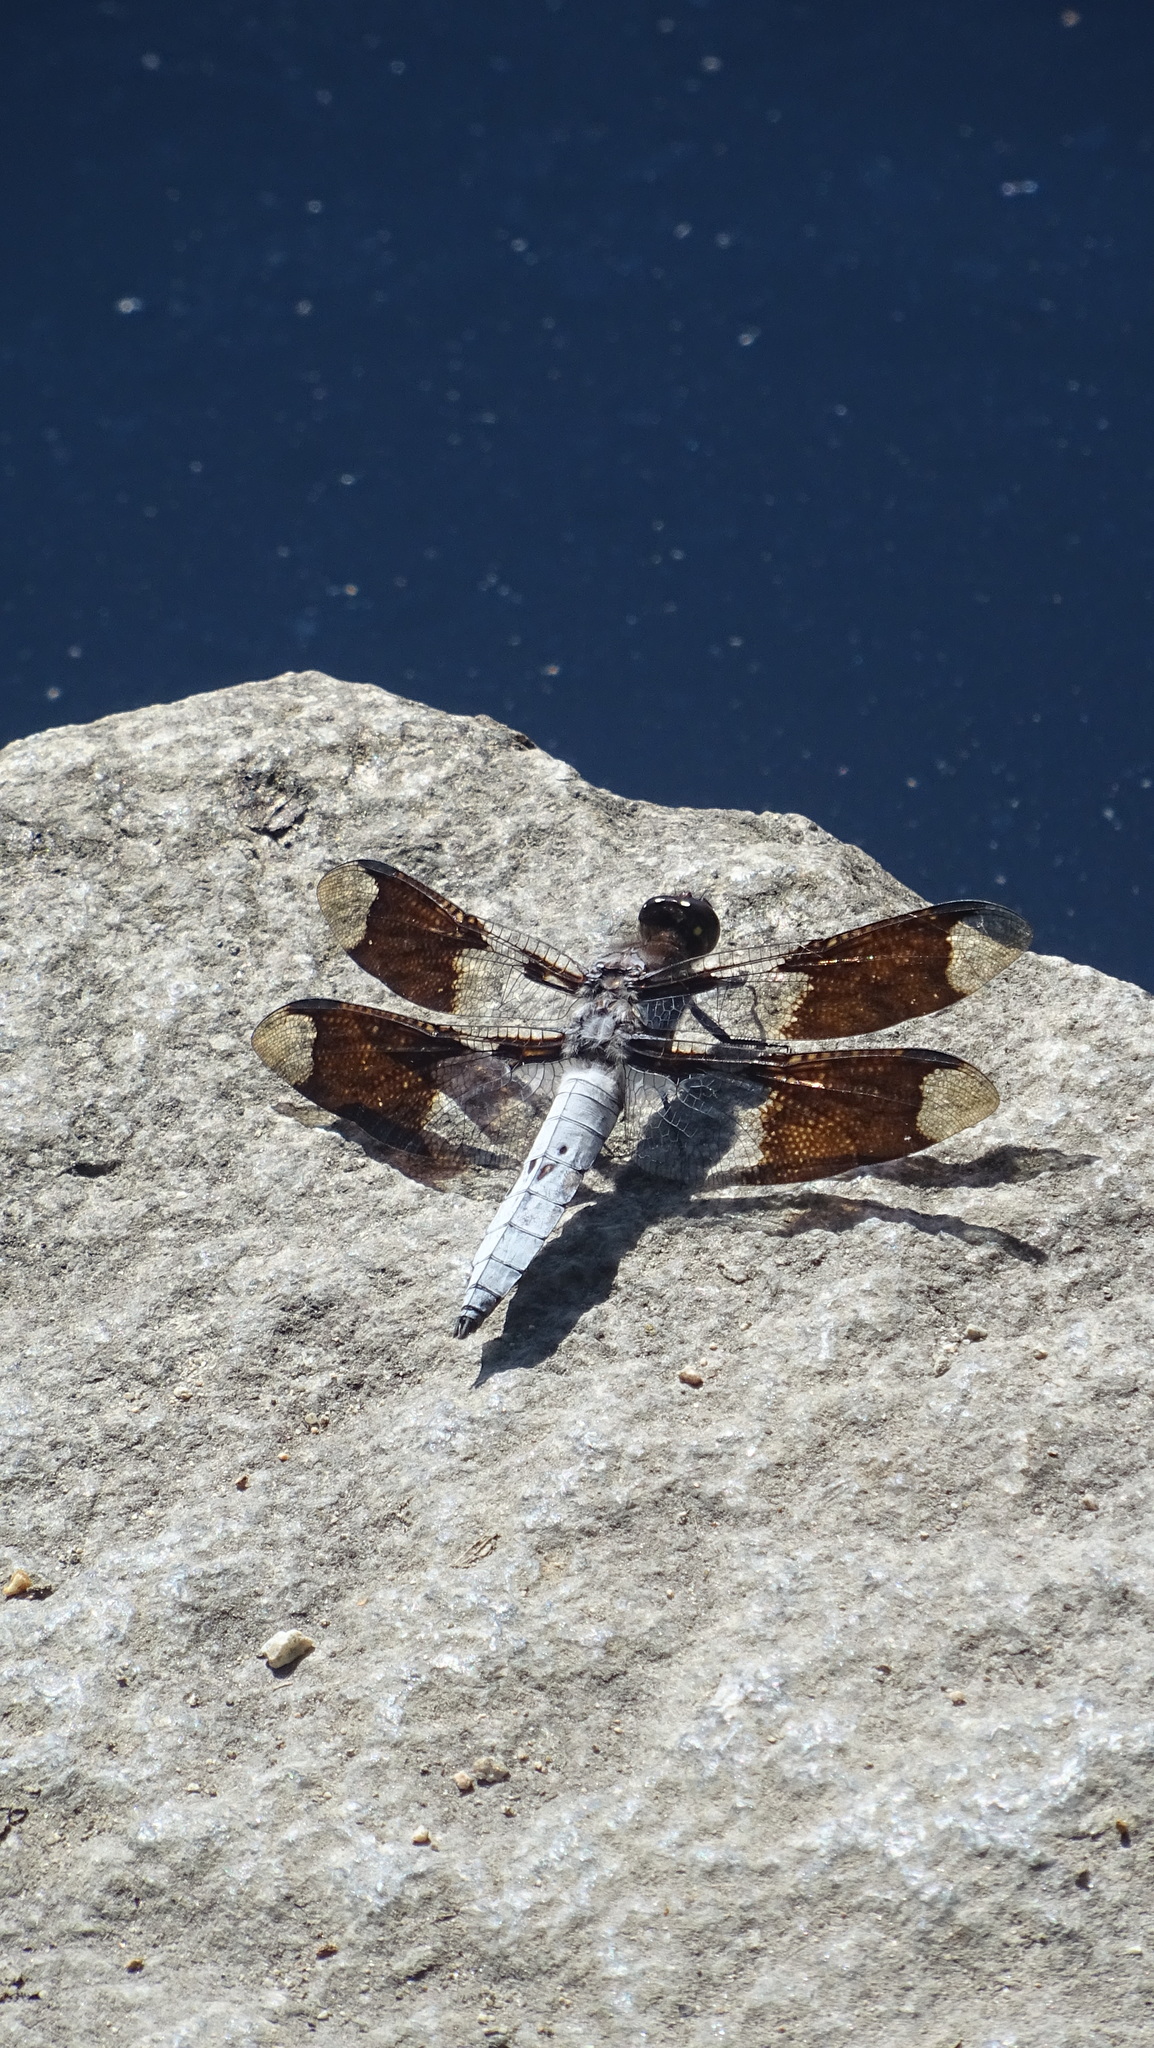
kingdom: Animalia
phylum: Arthropoda
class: Insecta
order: Odonata
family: Libellulidae
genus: Plathemis
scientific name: Plathemis lydia
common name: Common whitetail
